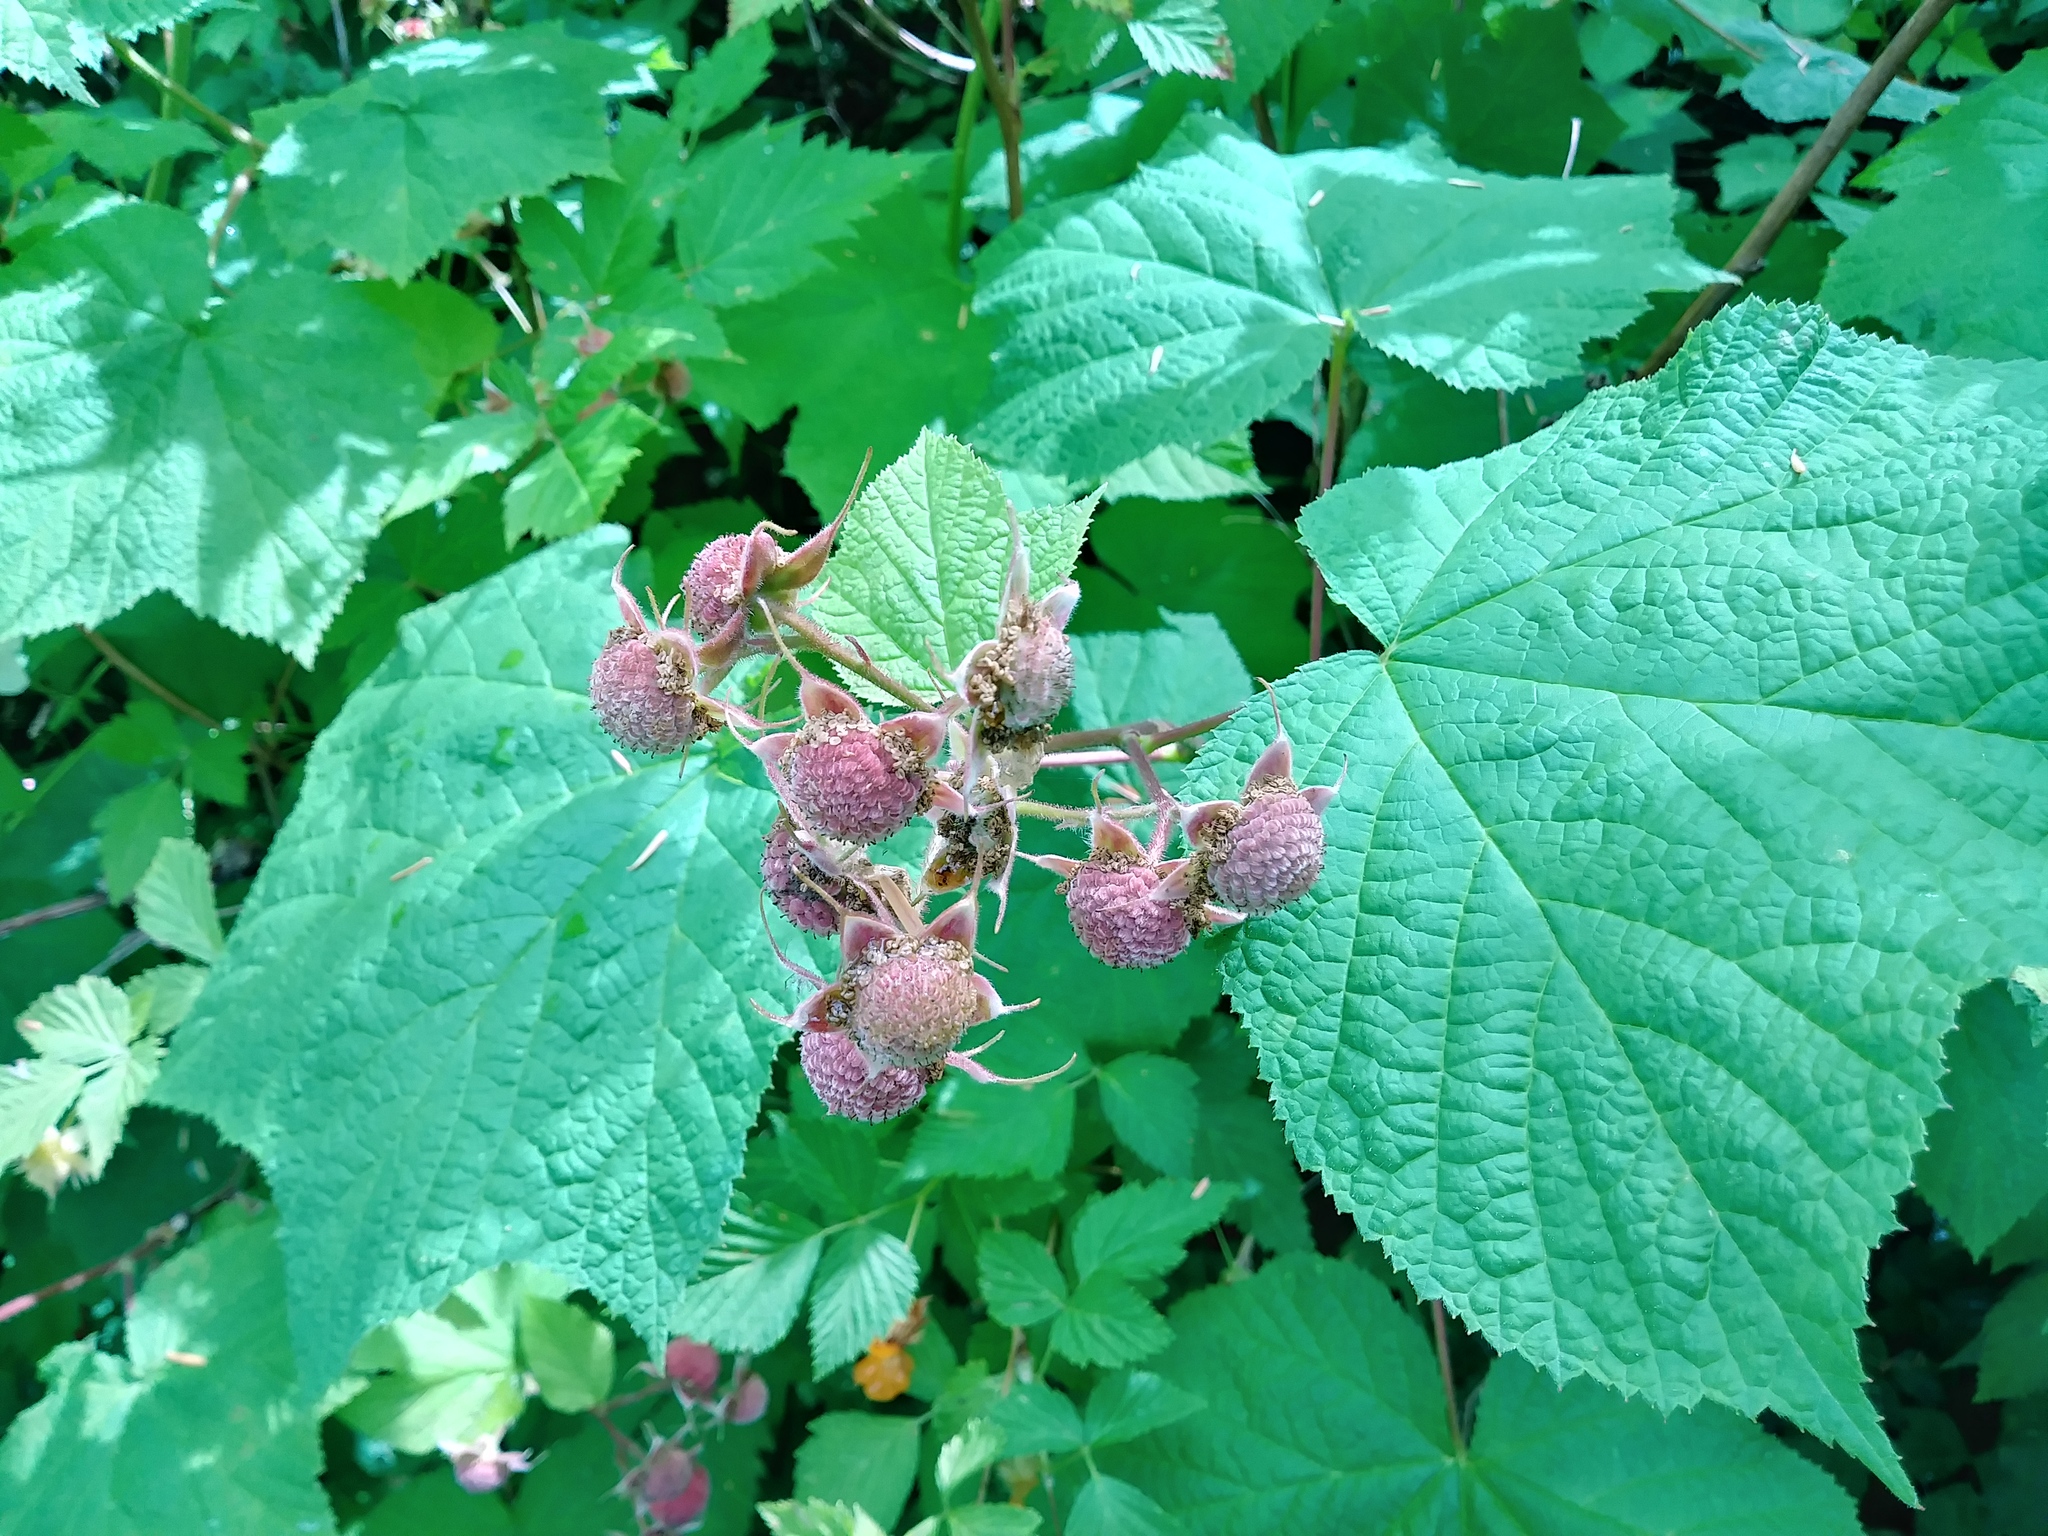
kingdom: Plantae
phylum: Tracheophyta
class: Magnoliopsida
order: Rosales
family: Rosaceae
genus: Rubus
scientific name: Rubus parviflorus
